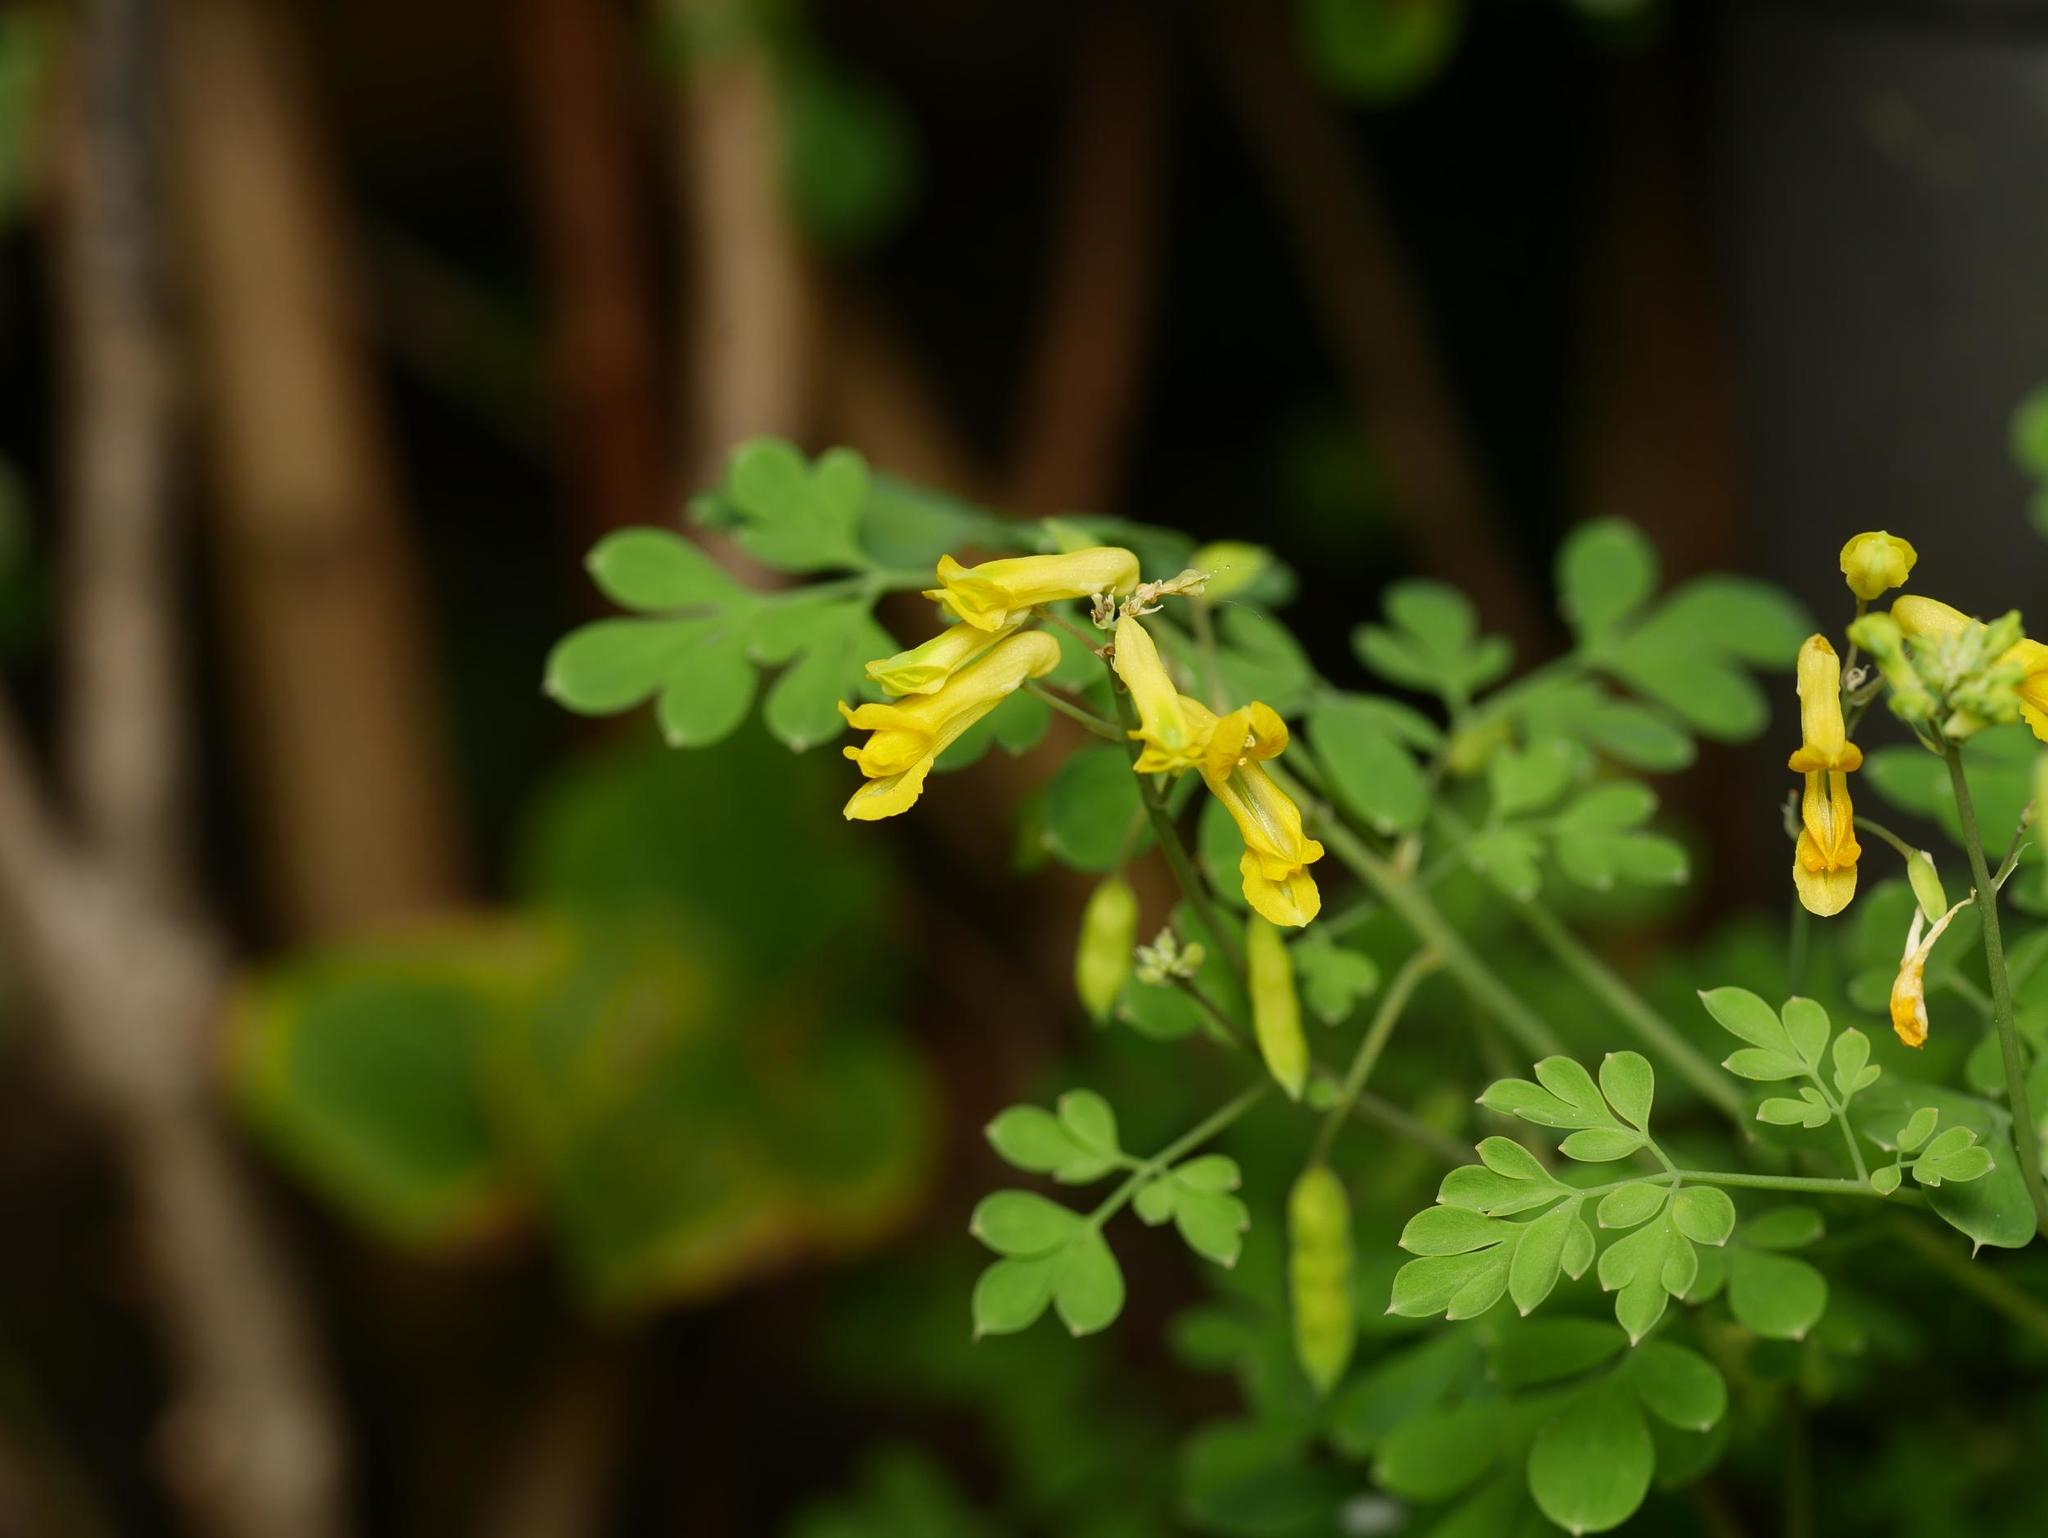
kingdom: Plantae
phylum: Tracheophyta
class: Magnoliopsida
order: Ranunculales
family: Papaveraceae
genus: Pseudofumaria
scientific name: Pseudofumaria lutea
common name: Yellow corydalis
